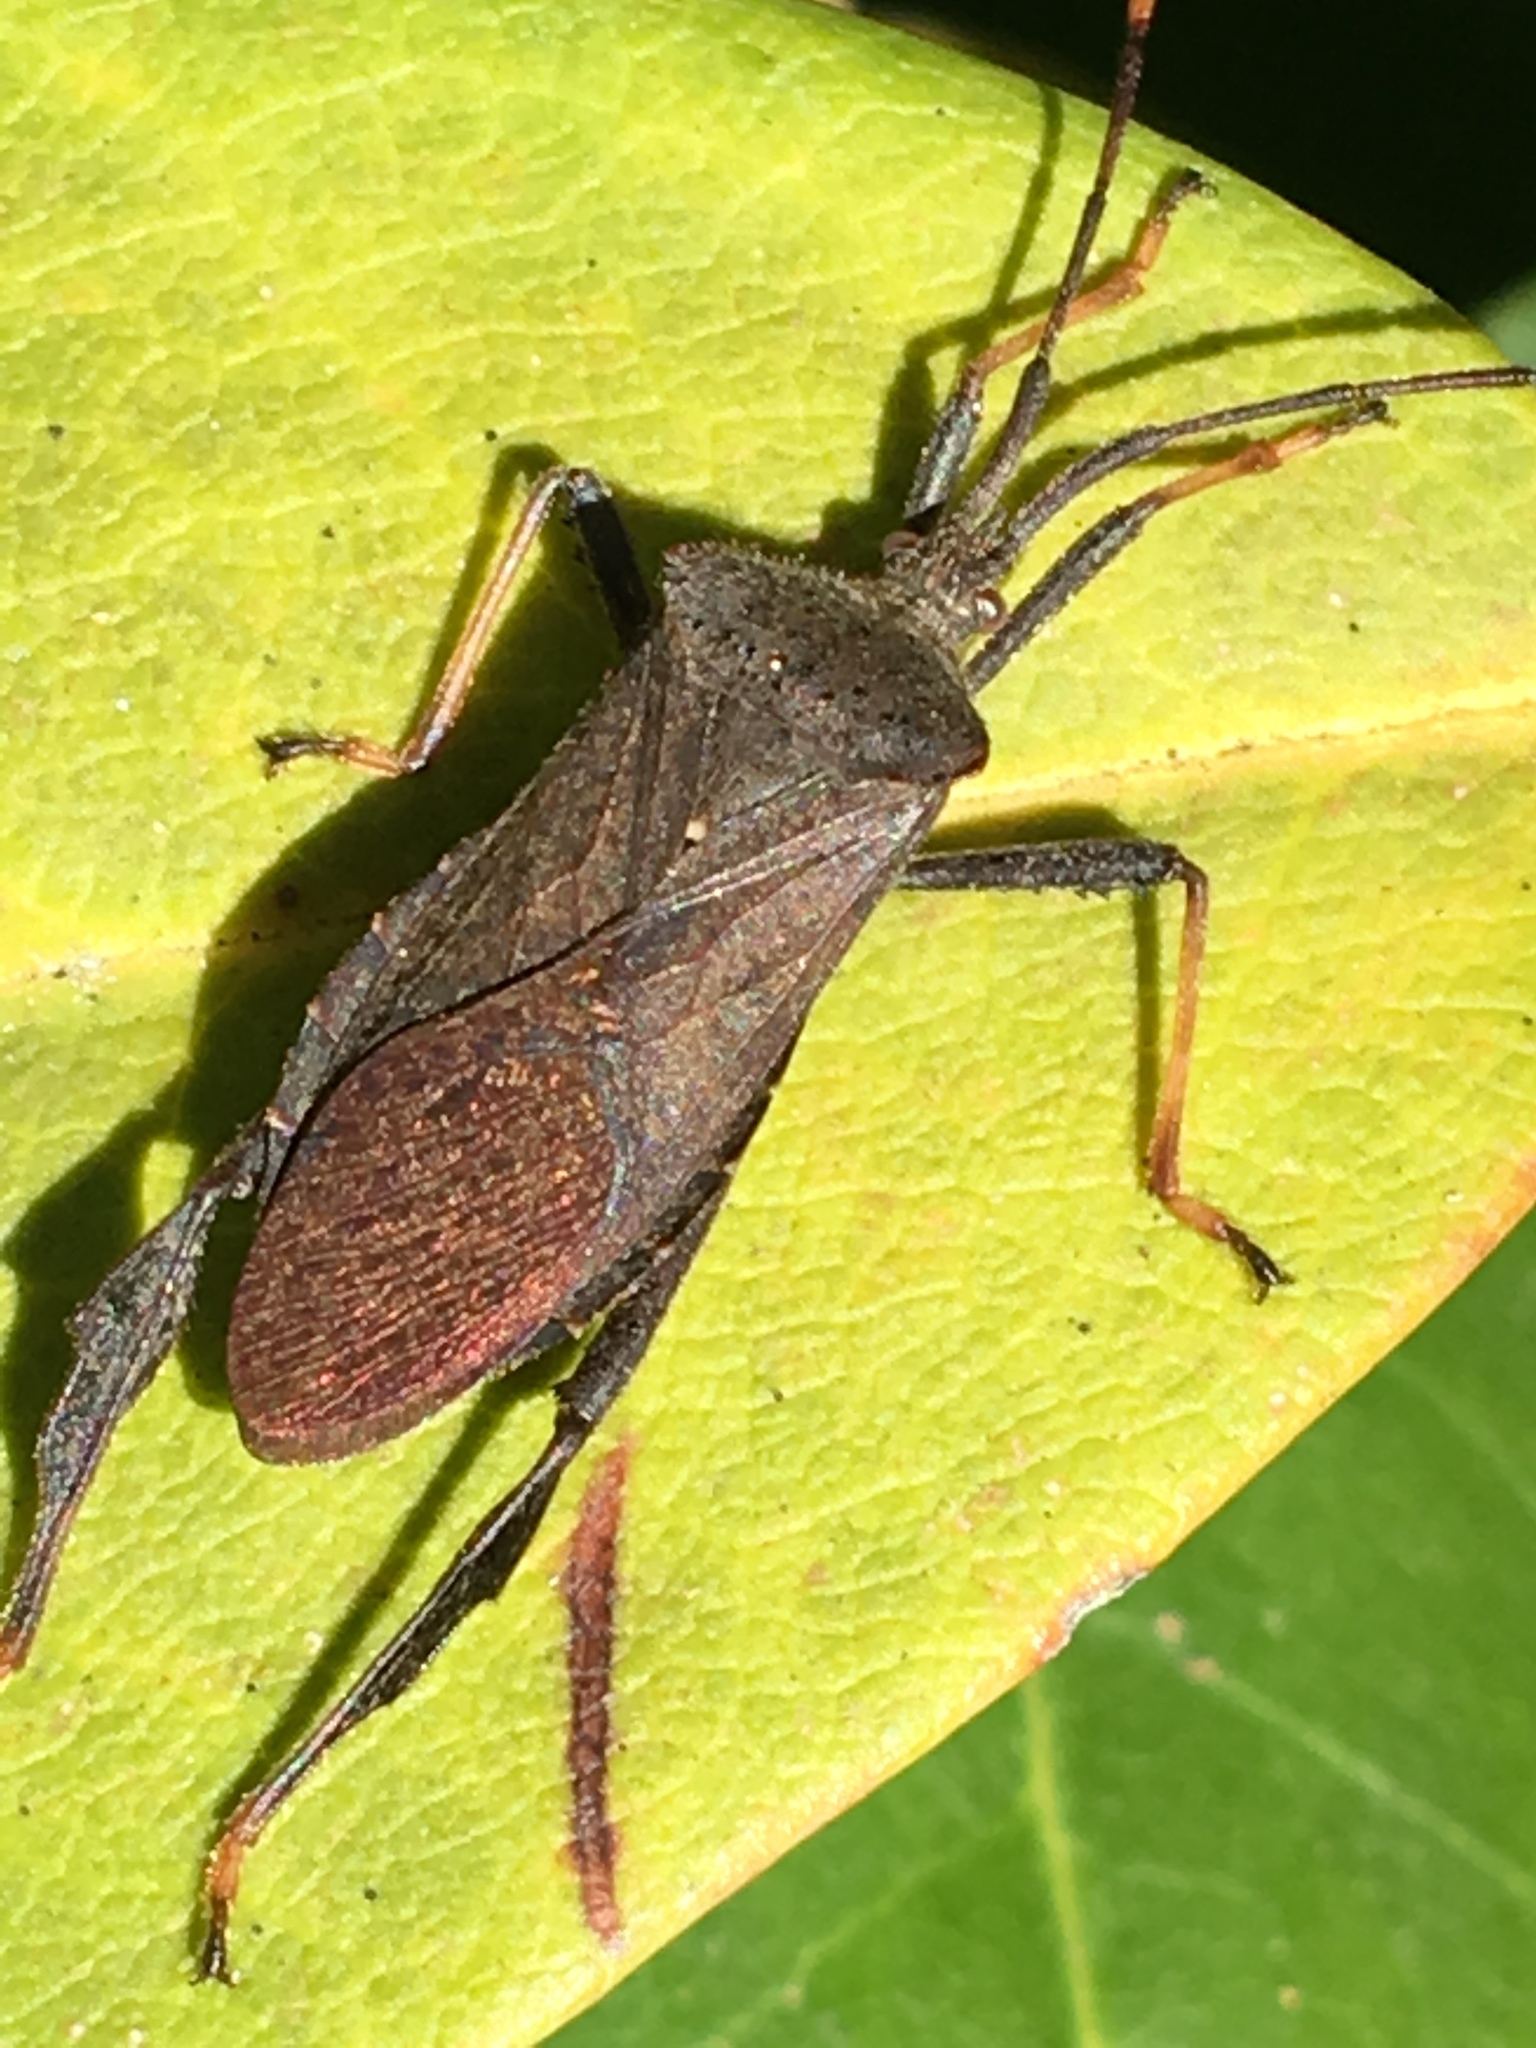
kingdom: Animalia
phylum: Arthropoda
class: Insecta
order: Hemiptera
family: Coreidae
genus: Acanthocephala
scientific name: Acanthocephala terminalis
